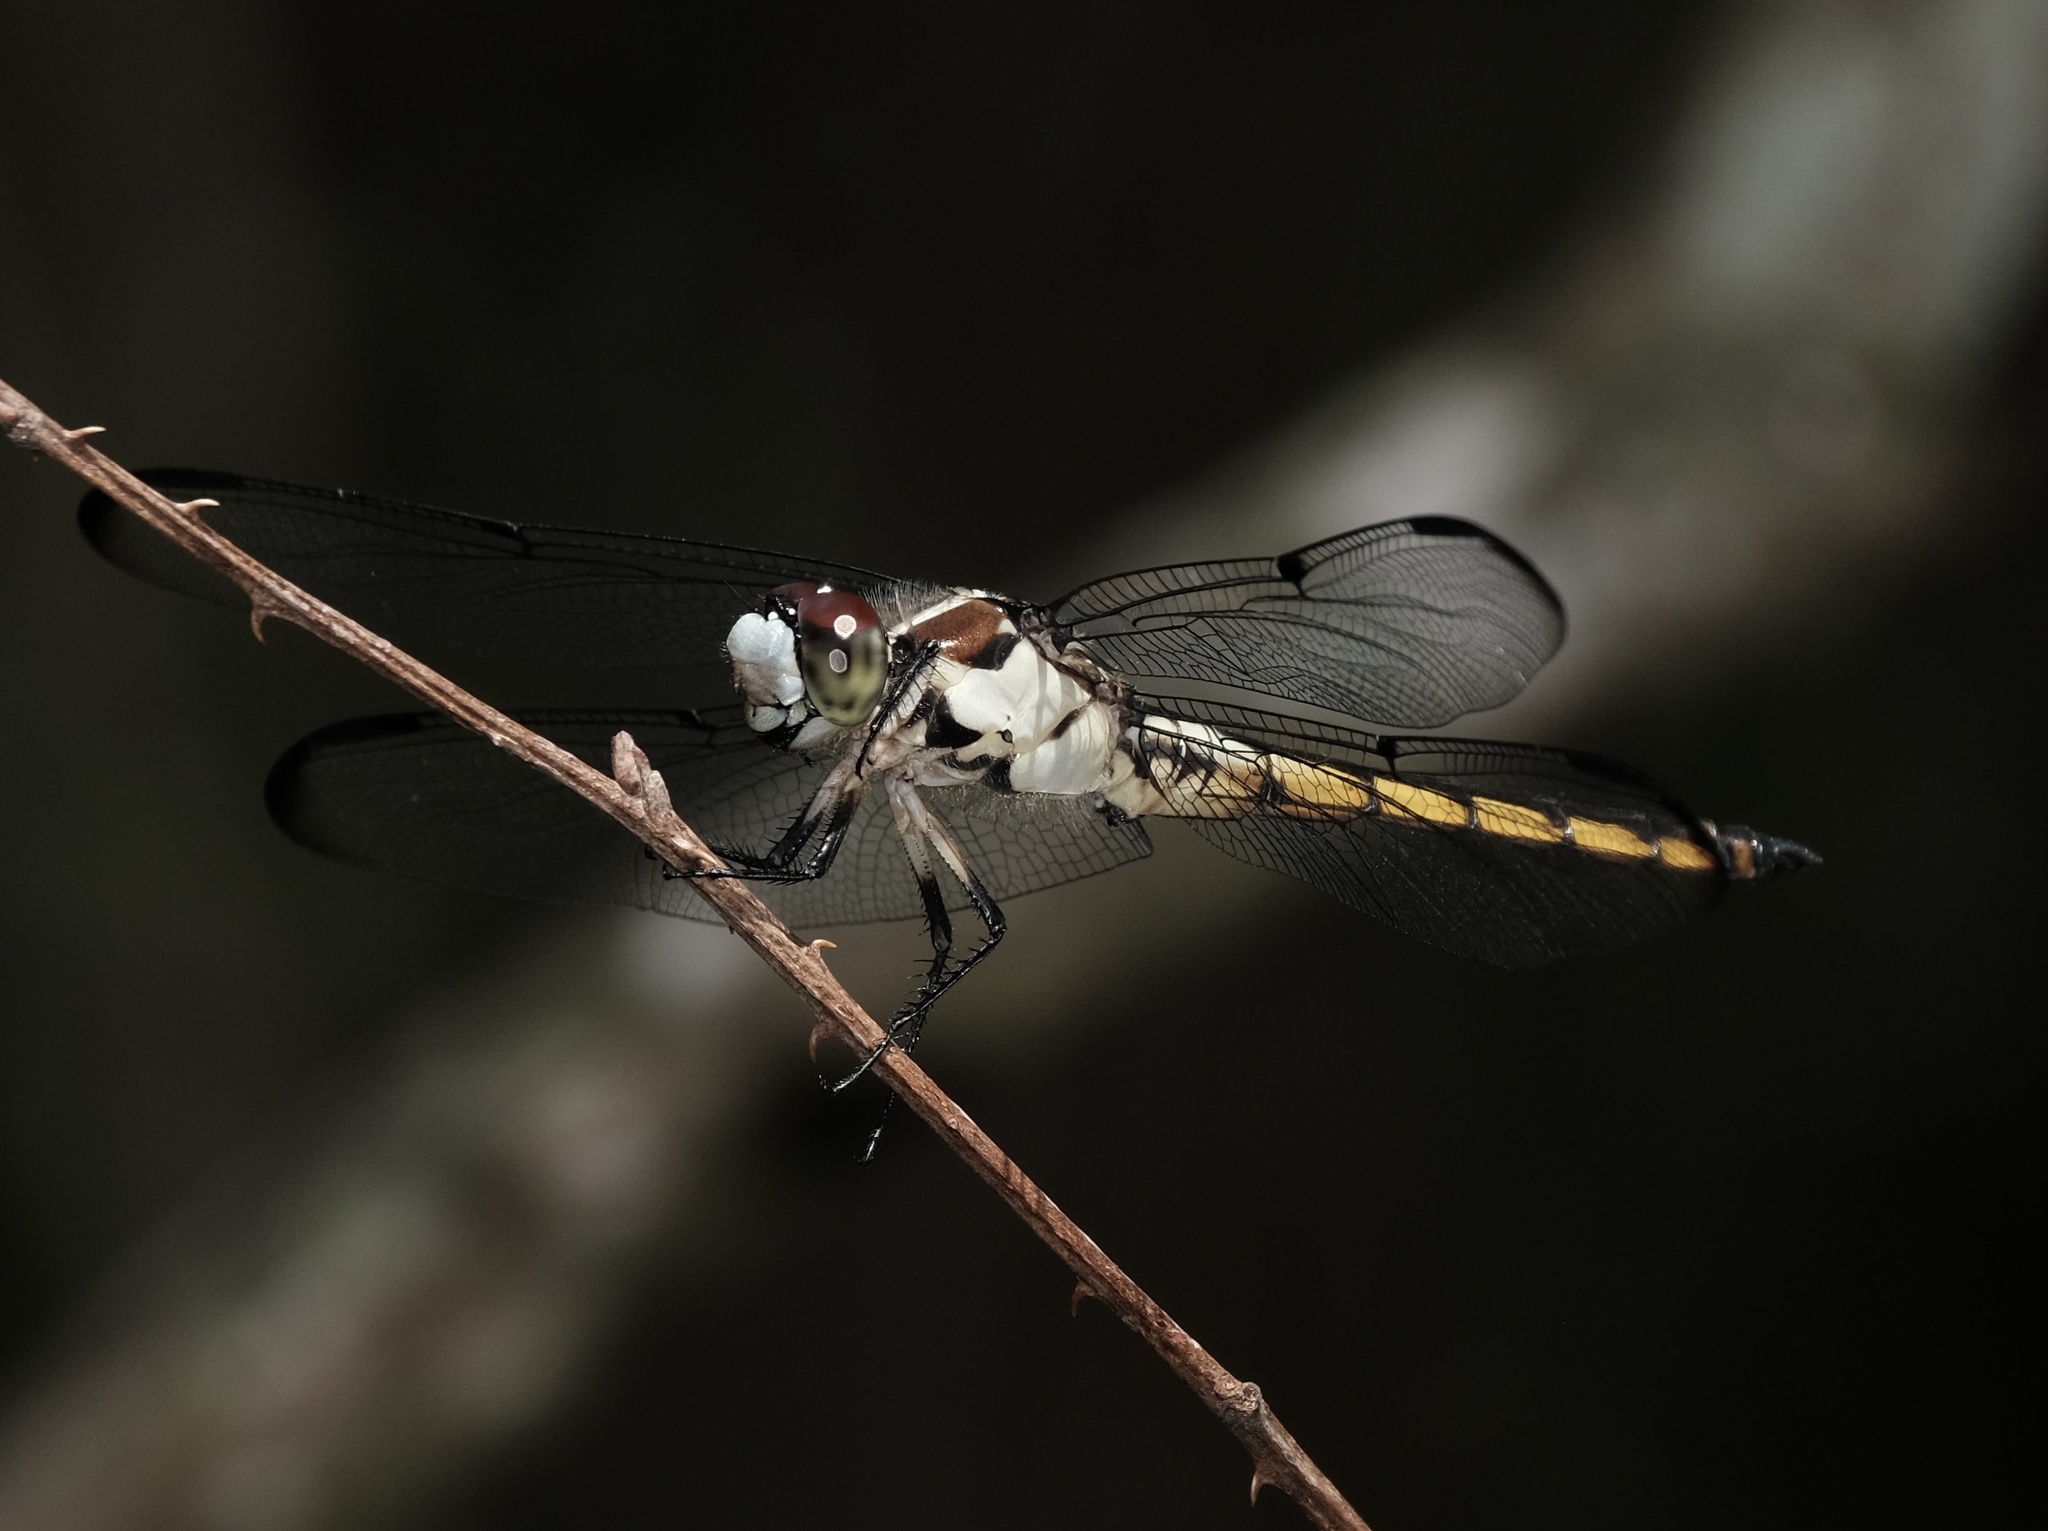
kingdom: Animalia
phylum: Arthropoda
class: Insecta
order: Odonata
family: Libellulidae
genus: Libellula
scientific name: Libellula vibrans
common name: Great blue skimmer
